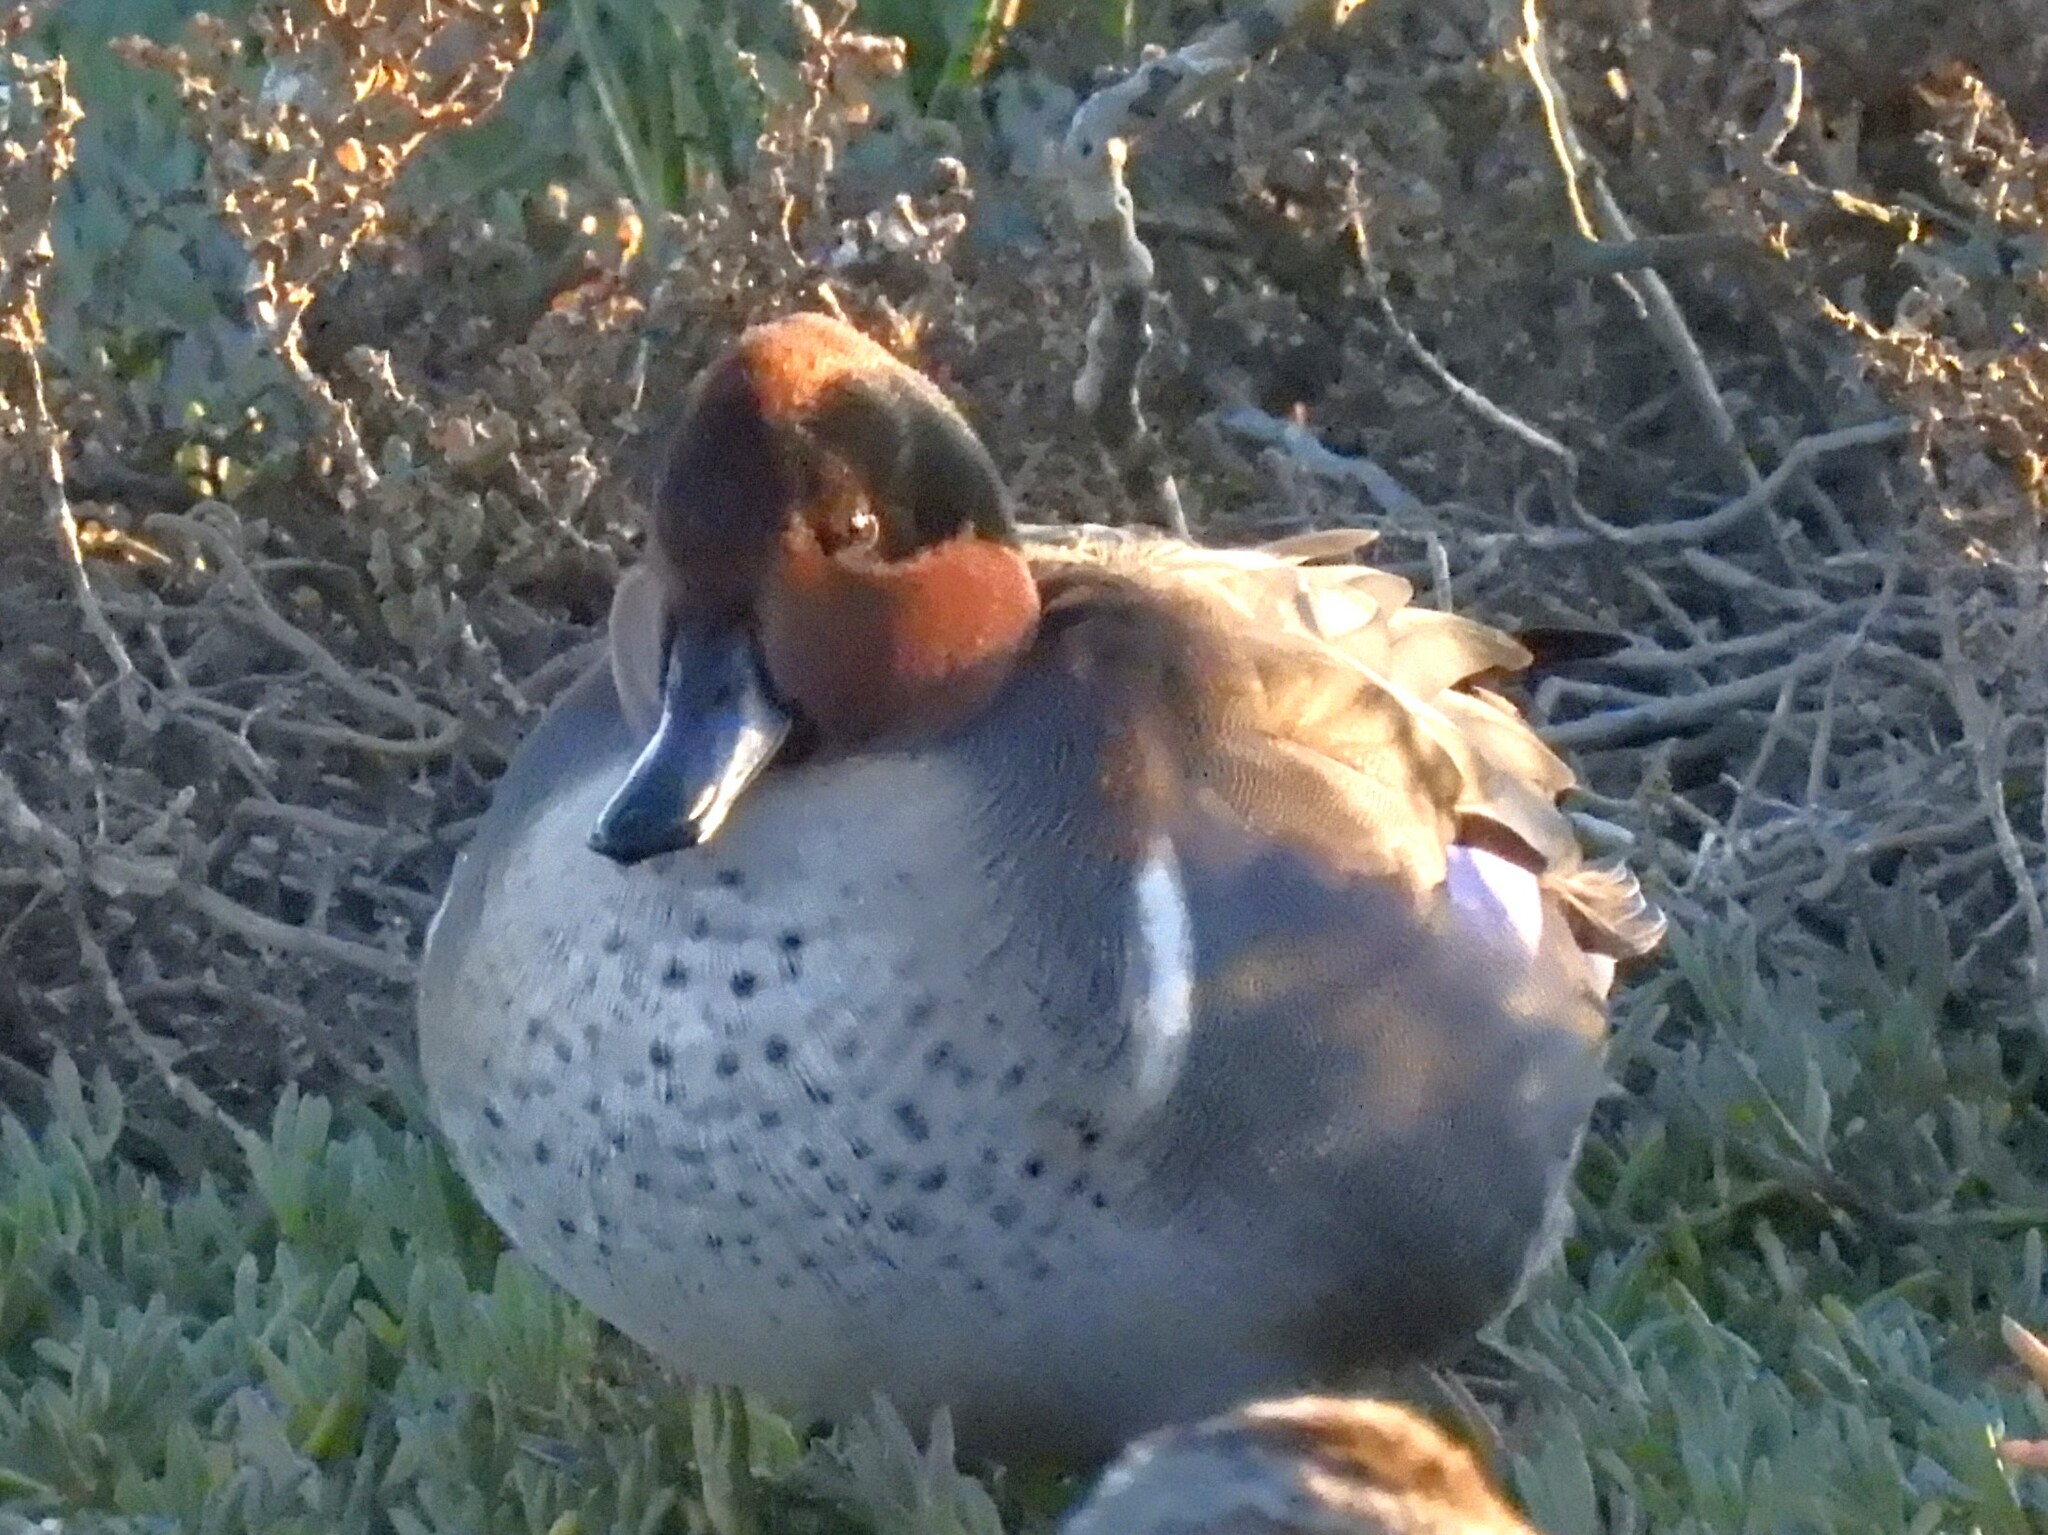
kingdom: Animalia
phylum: Chordata
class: Aves
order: Anseriformes
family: Anatidae
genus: Anas
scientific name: Anas crecca
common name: Eurasian teal
